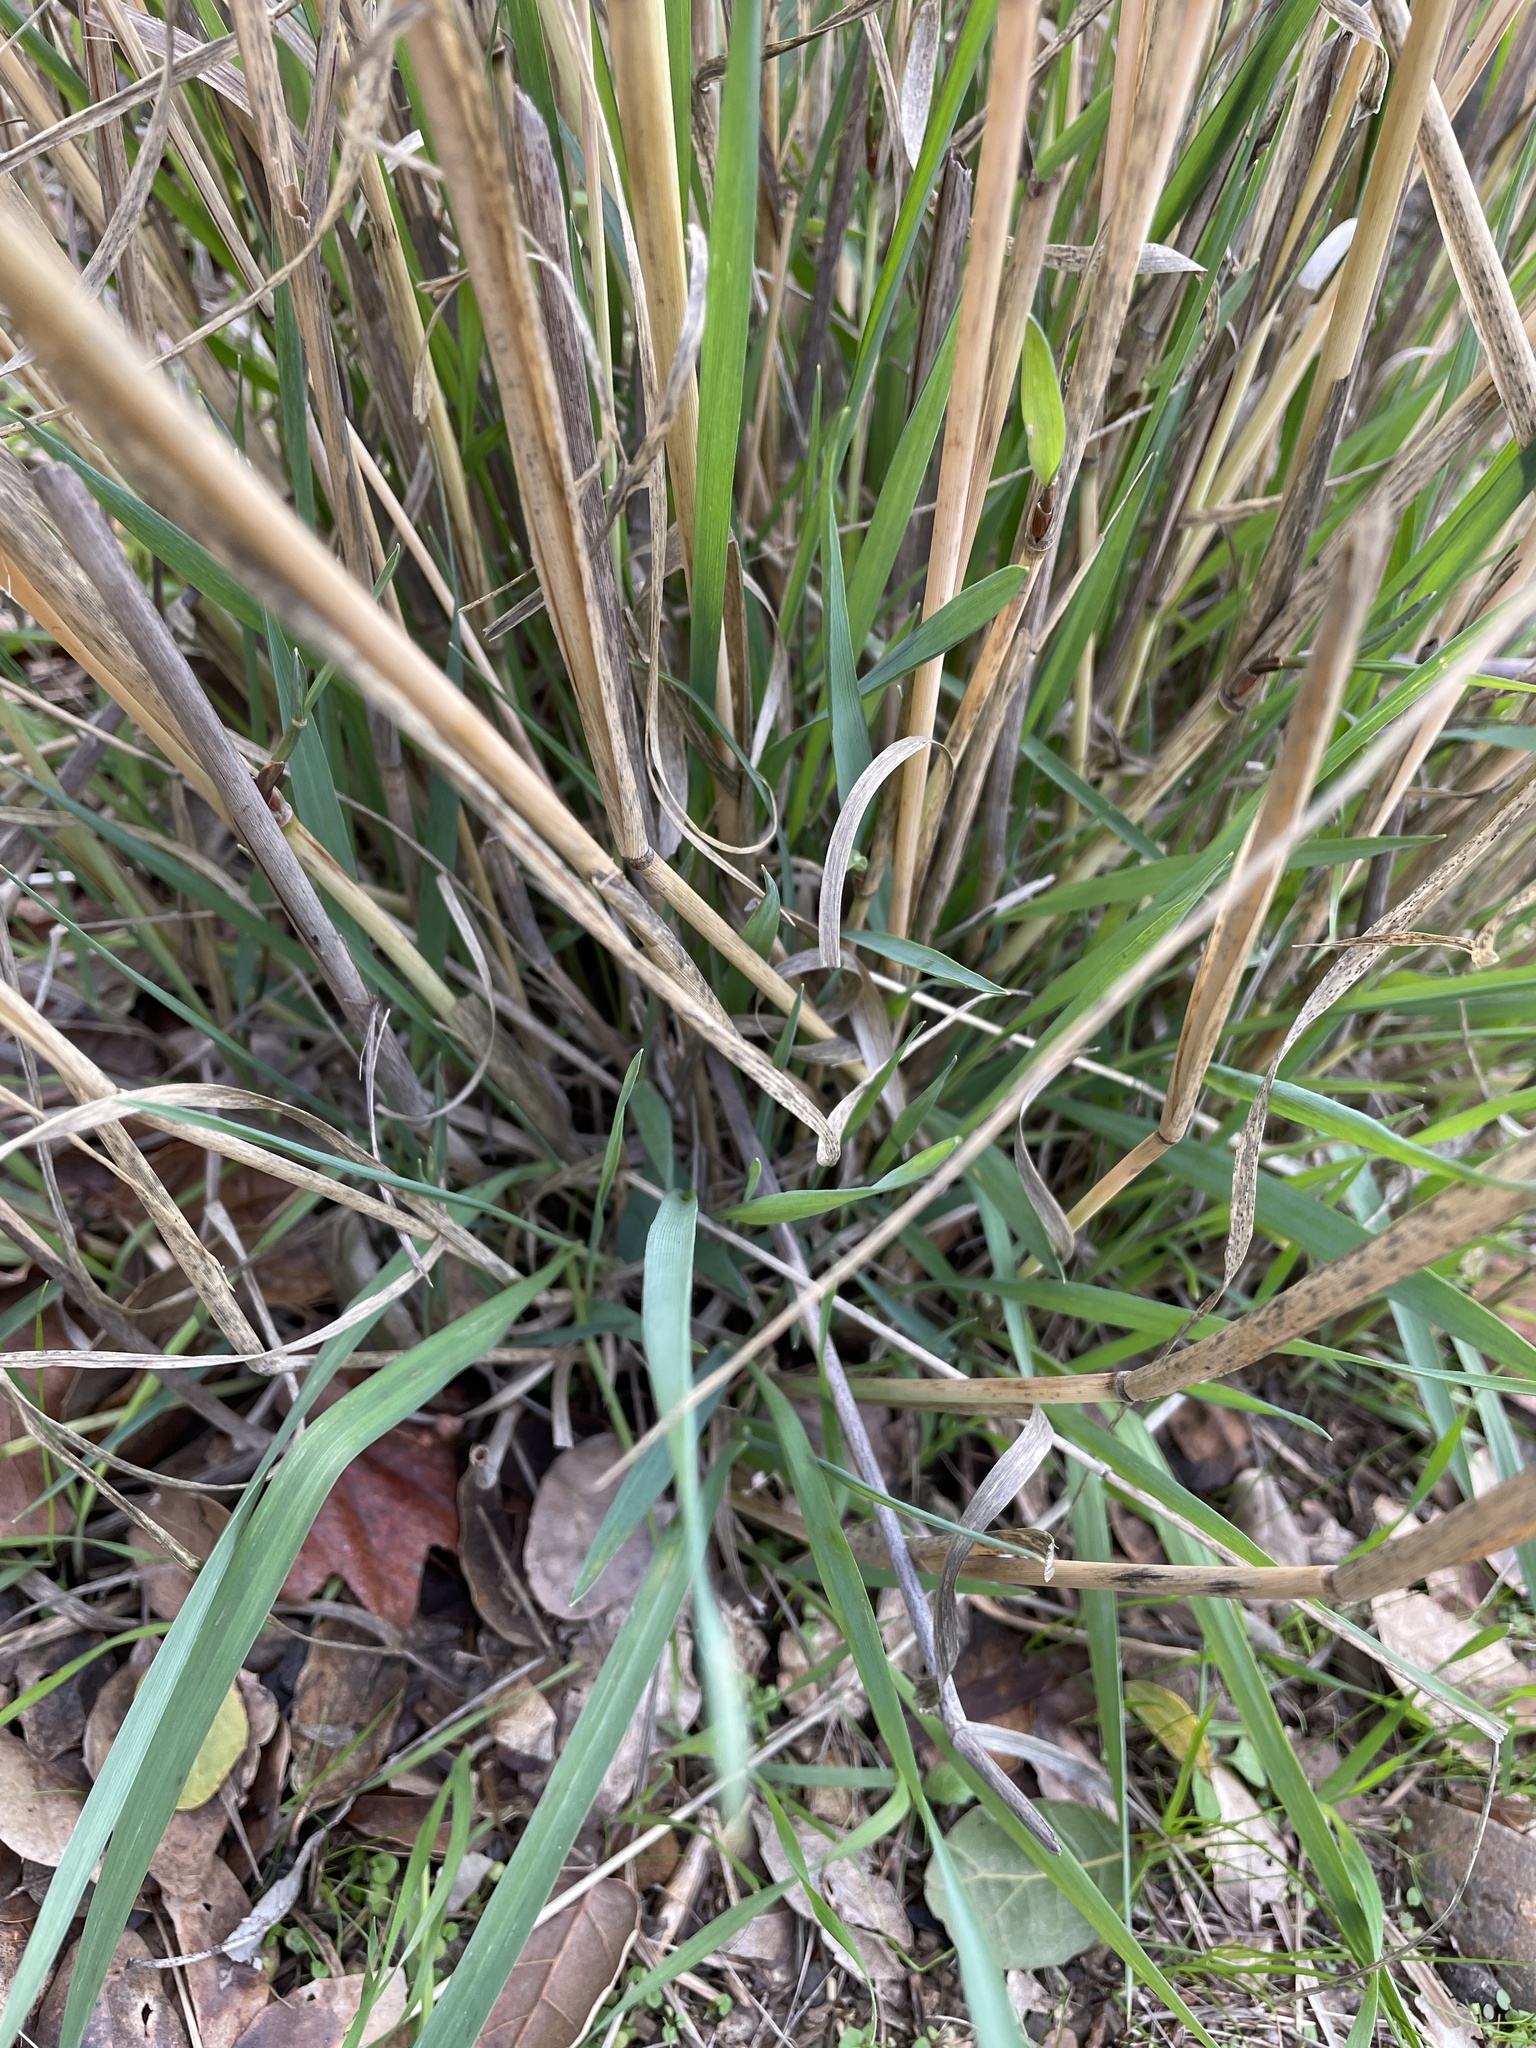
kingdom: Plantae
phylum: Tracheophyta
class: Liliopsida
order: Poales
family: Poaceae
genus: Phalaris
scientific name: Phalaris aquatica
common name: Bulbous canary-grass
